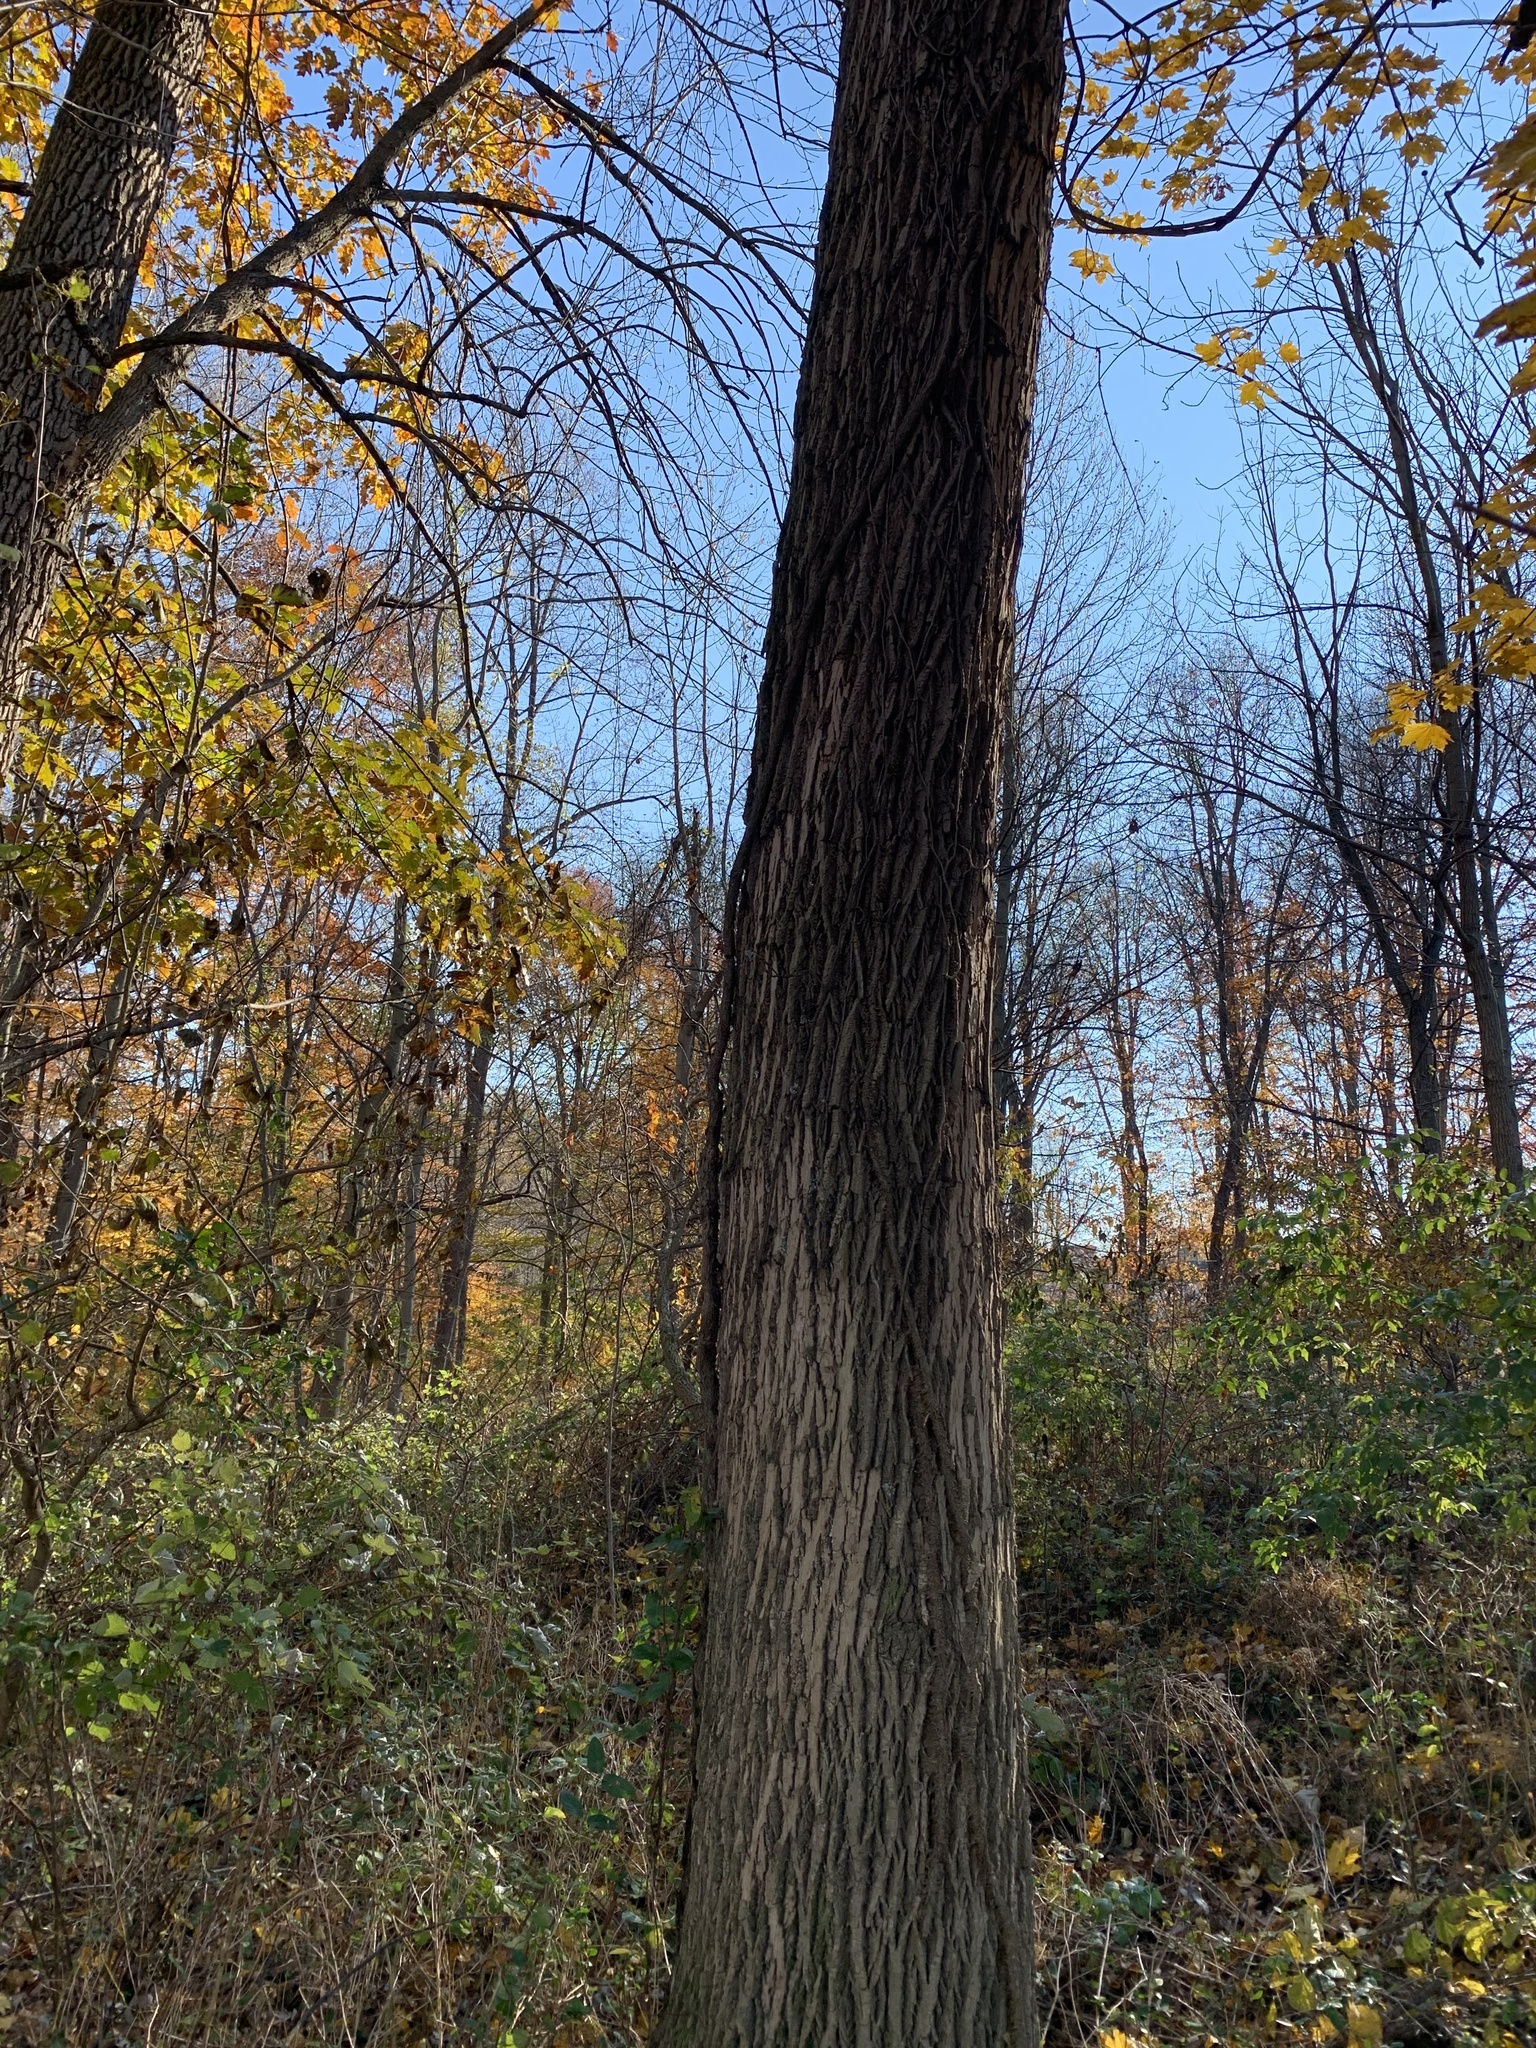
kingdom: Animalia
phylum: Arthropoda
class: Insecta
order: Coleoptera
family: Buprestidae
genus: Agrilus
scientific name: Agrilus planipennis
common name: Emerald ash borer
